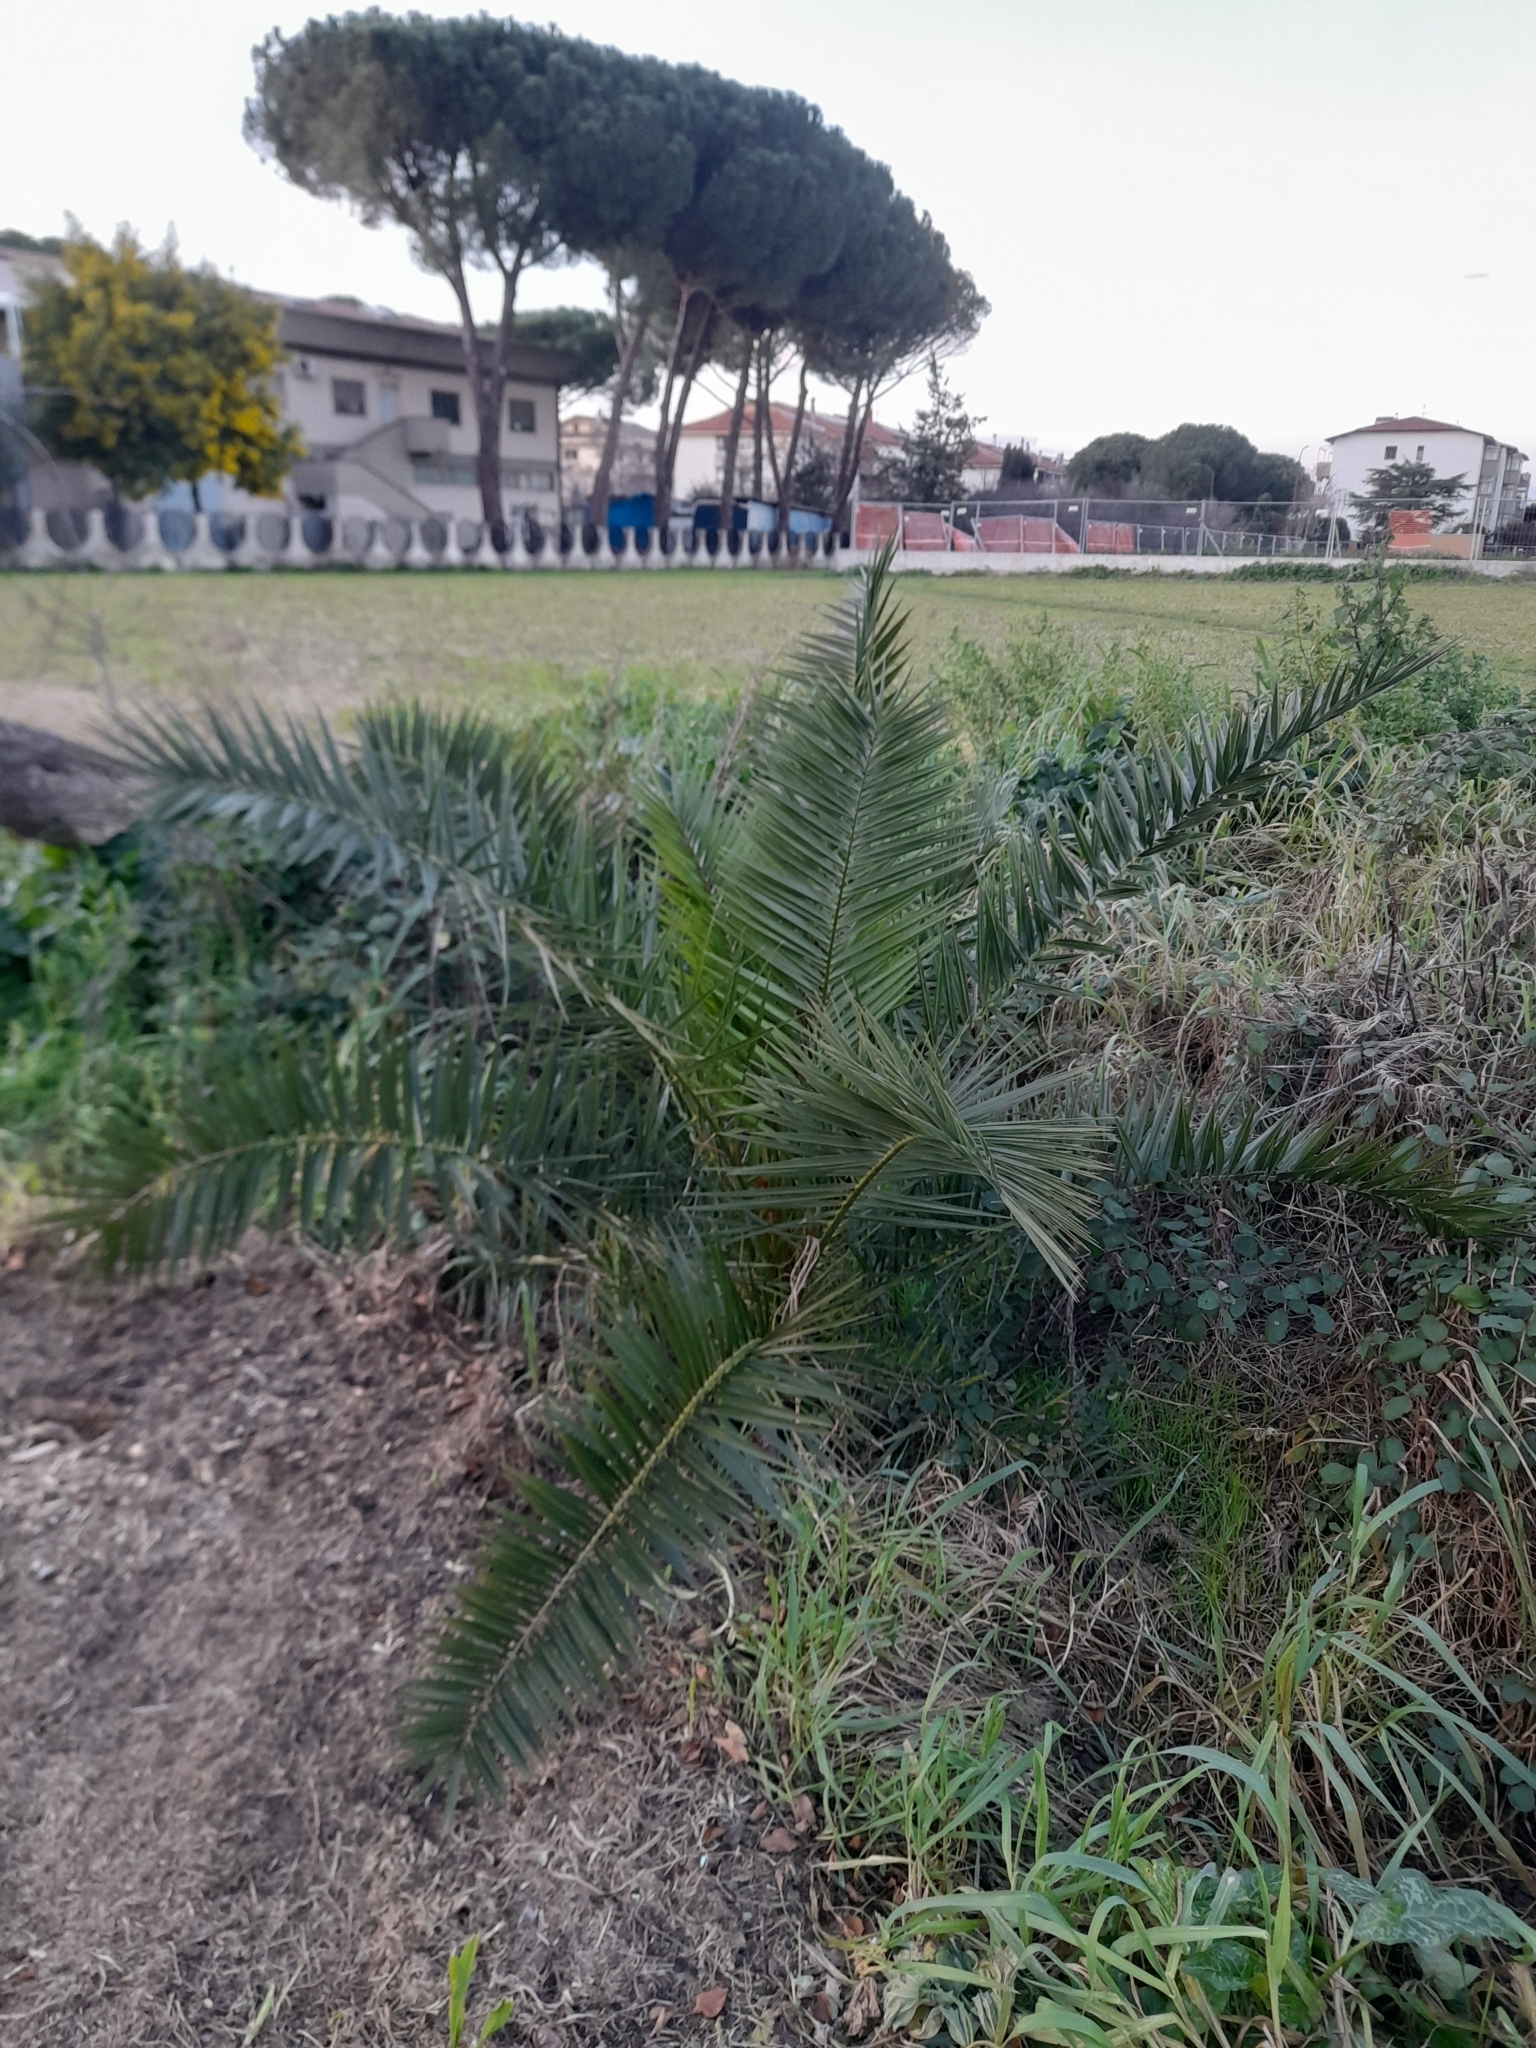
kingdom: Plantae
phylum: Tracheophyta
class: Liliopsida
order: Arecales
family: Arecaceae
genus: Phoenix
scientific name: Phoenix canariensis
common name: Canary island date palm
